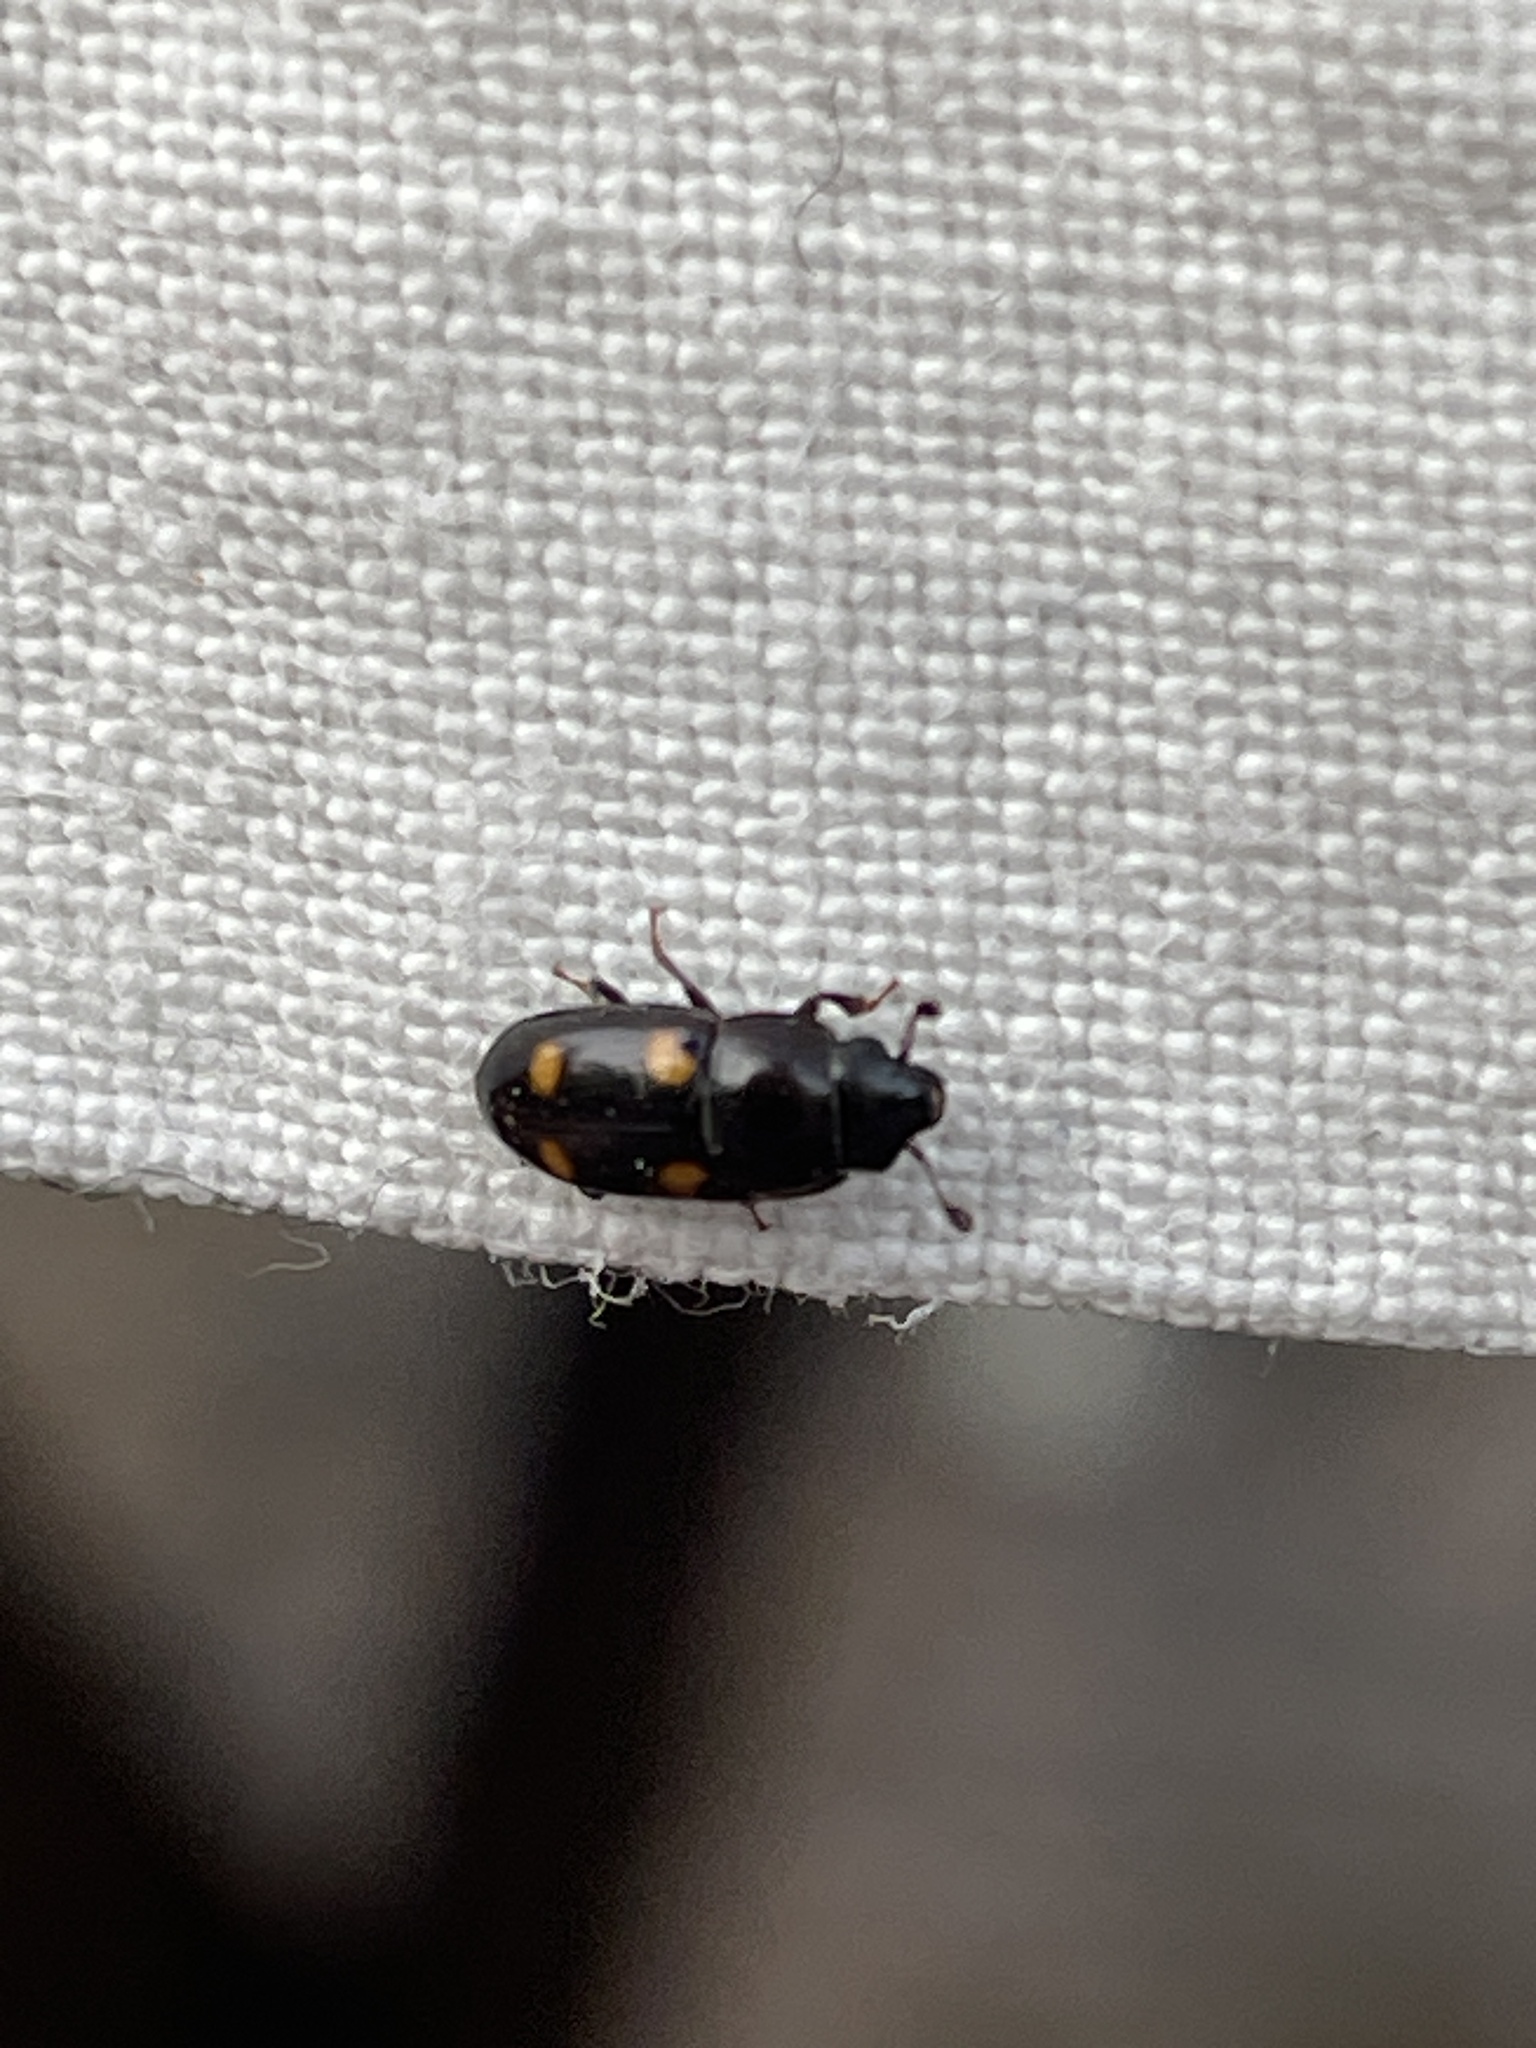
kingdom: Animalia
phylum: Arthropoda
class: Insecta
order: Coleoptera
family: Nitidulidae
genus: Glischrochilus
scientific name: Glischrochilus hortensis
